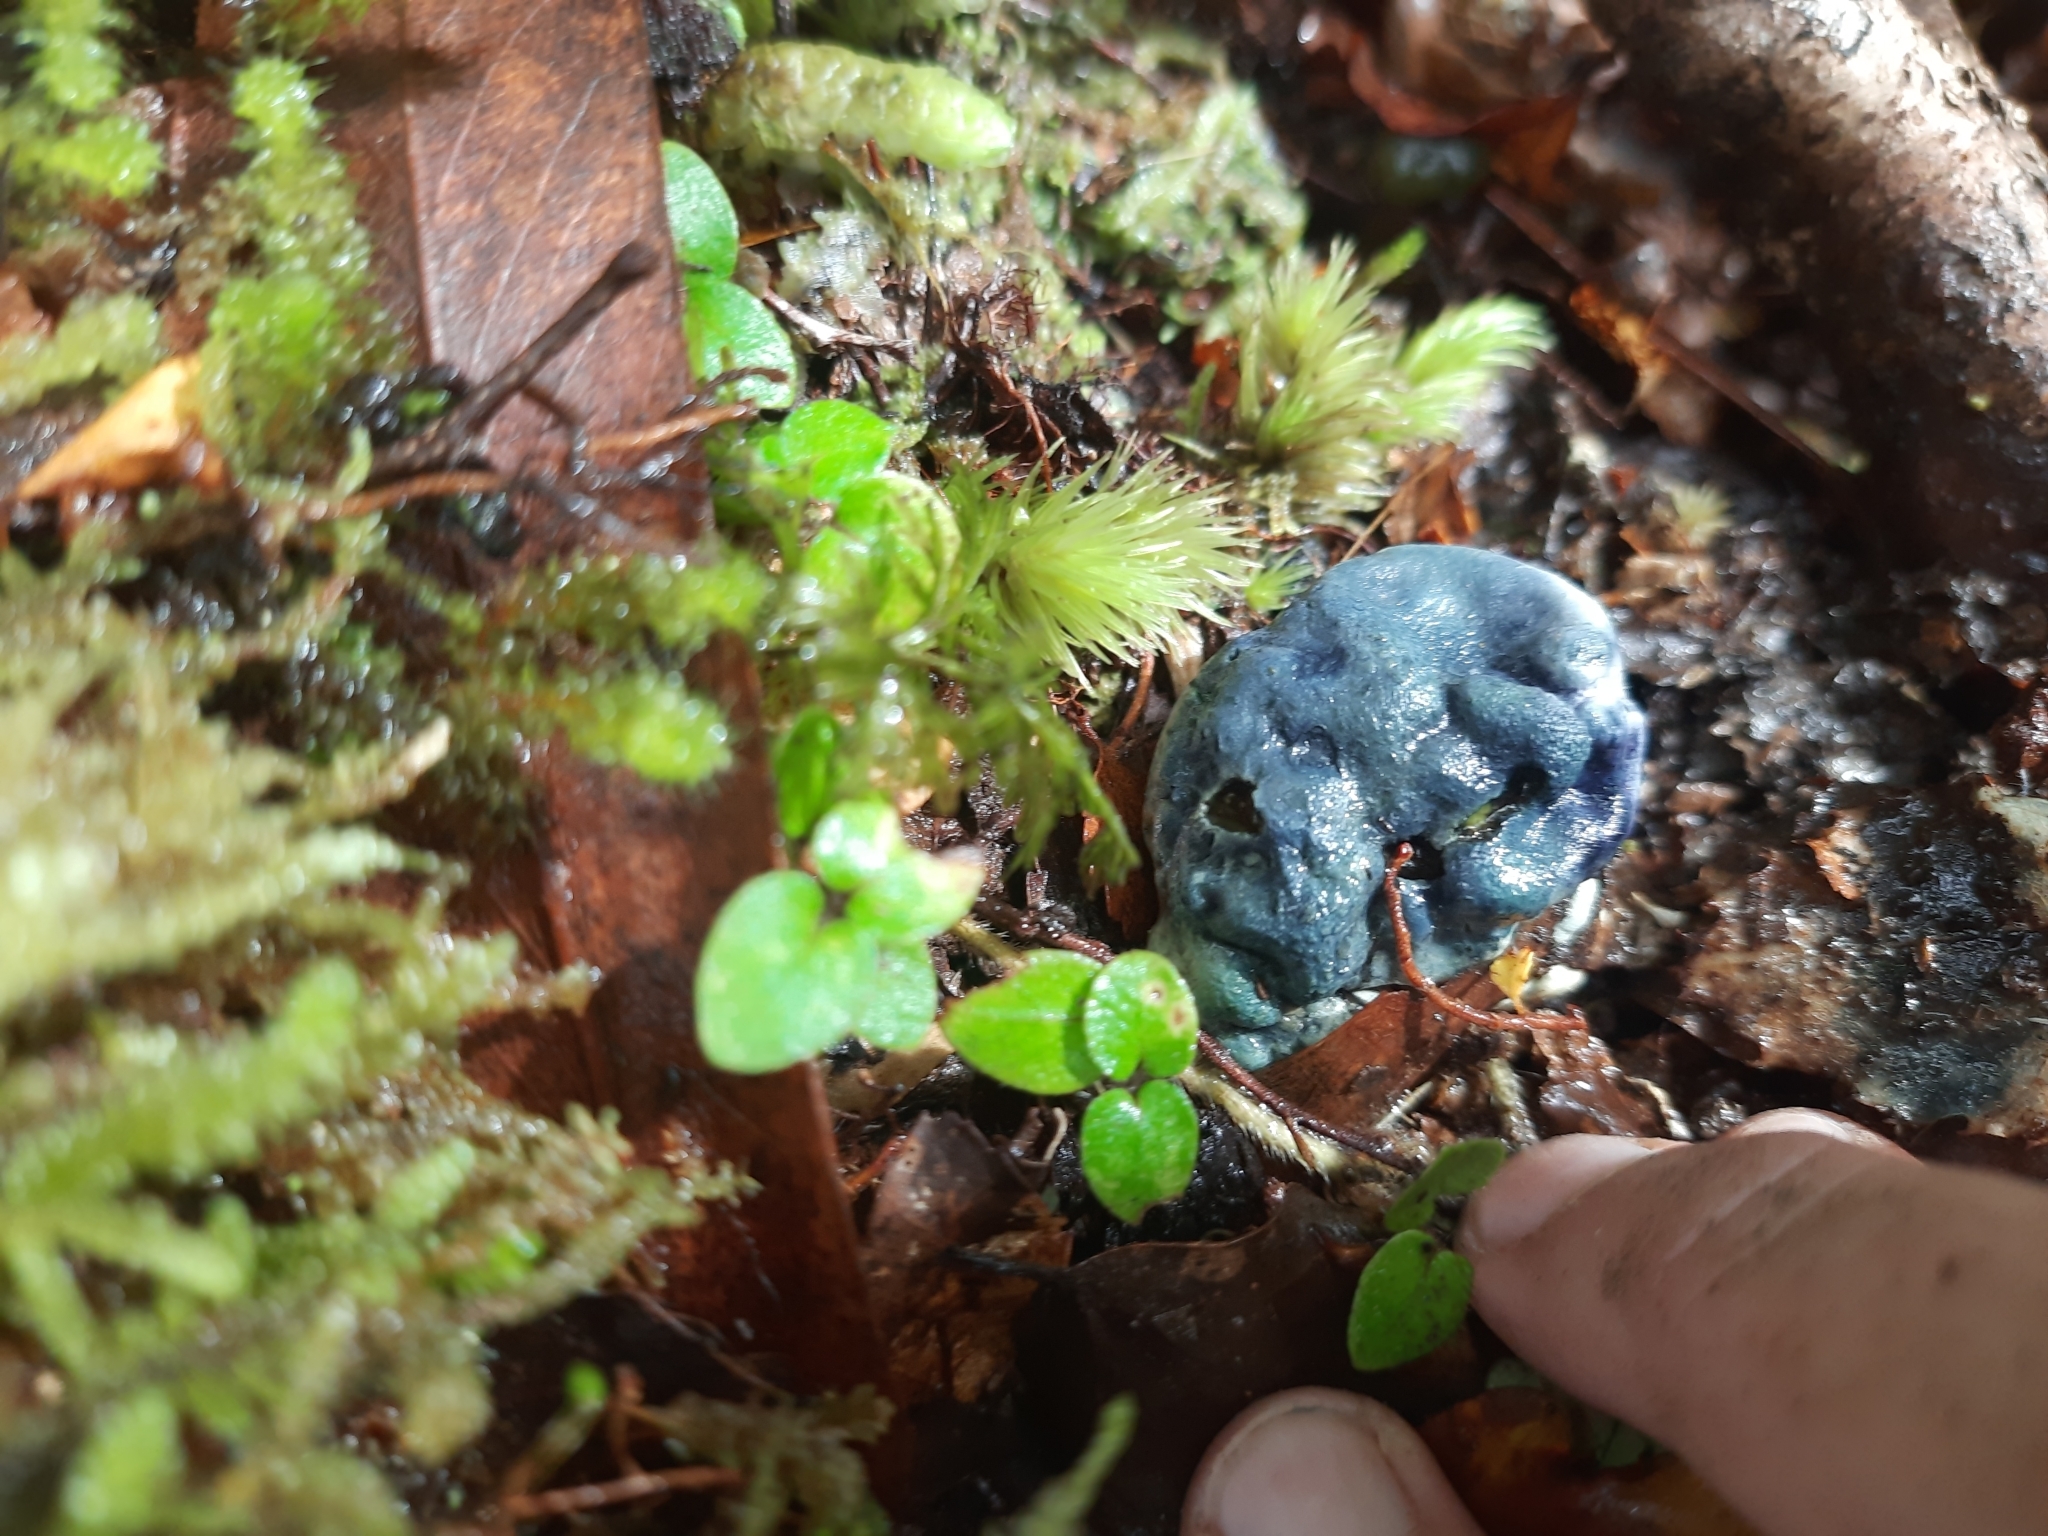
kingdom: Fungi
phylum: Basidiomycota
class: Agaricomycetes
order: Boletales
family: Boletaceae
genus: Leccinum
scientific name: Leccinum pachyderme
